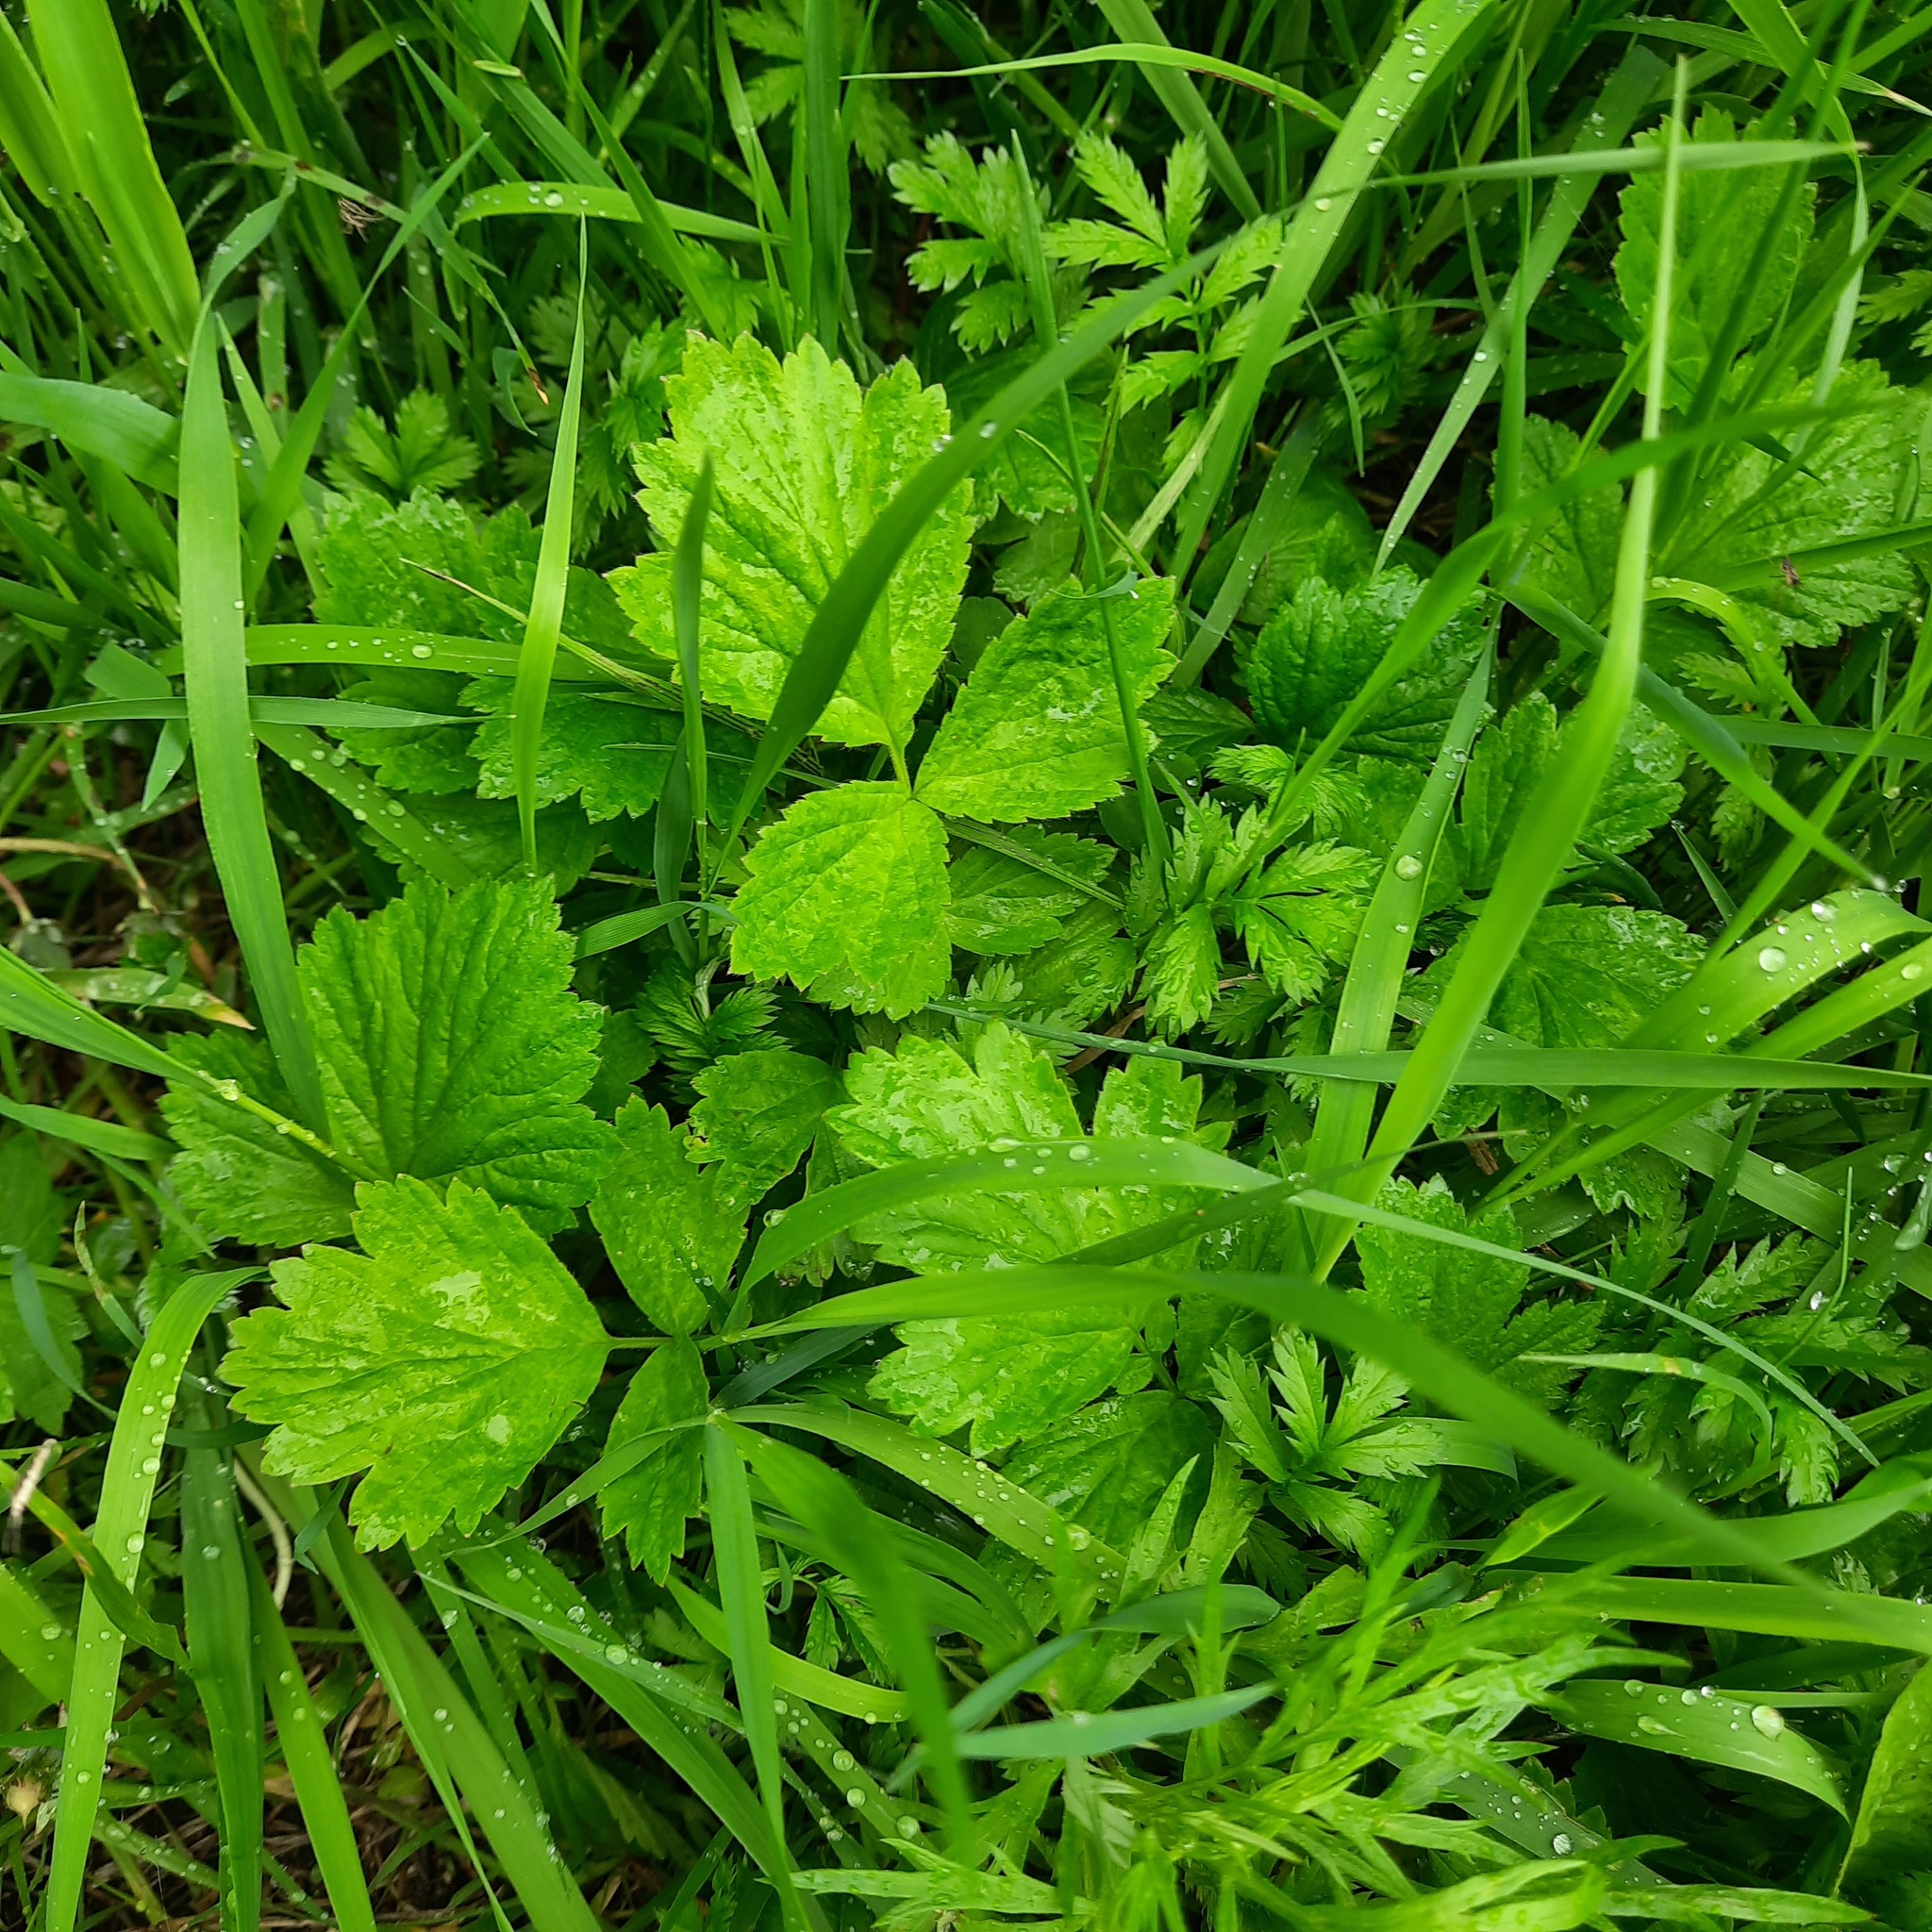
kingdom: Plantae
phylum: Tracheophyta
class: Magnoliopsida
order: Rosales
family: Rosaceae
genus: Geum
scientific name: Geum aleppicum
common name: Yellow avens
